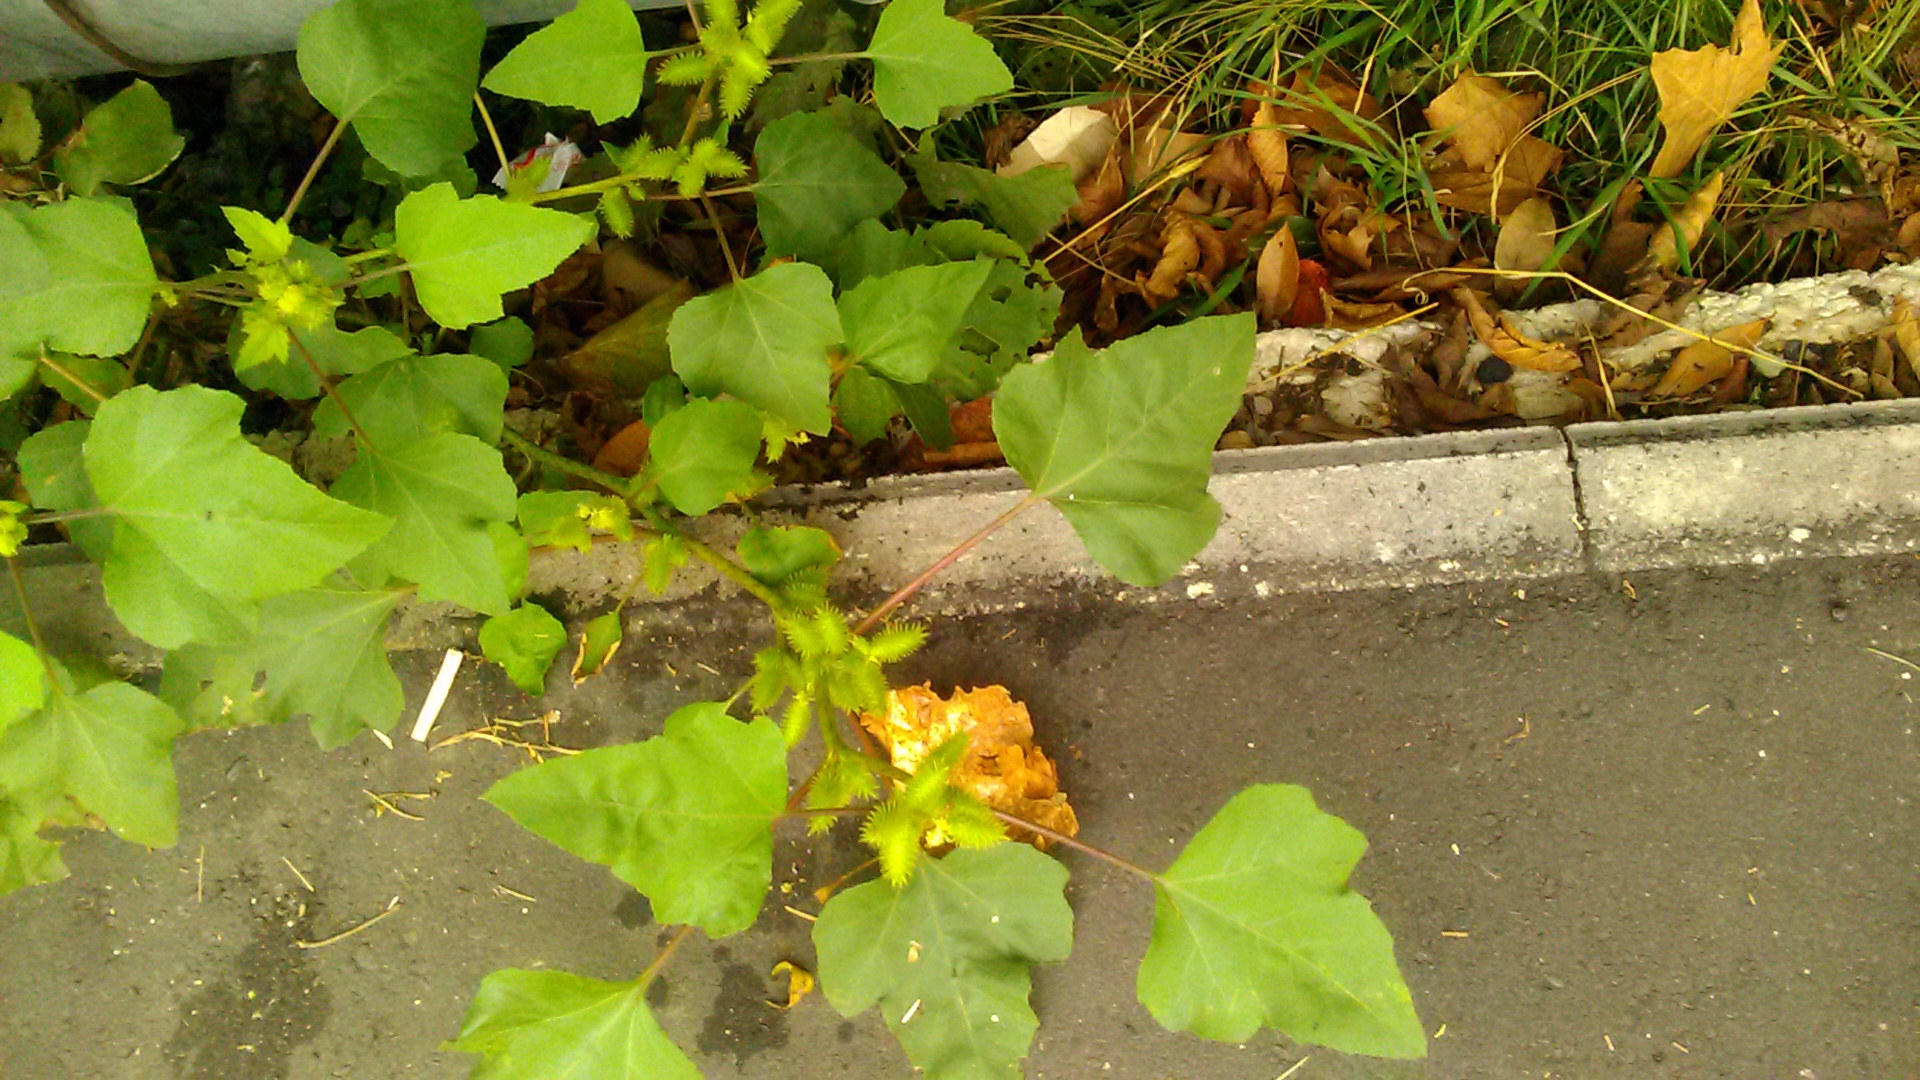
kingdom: Plantae
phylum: Tracheophyta
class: Magnoliopsida
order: Asterales
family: Asteraceae
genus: Xanthium
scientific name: Xanthium orientale
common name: Californian burr
